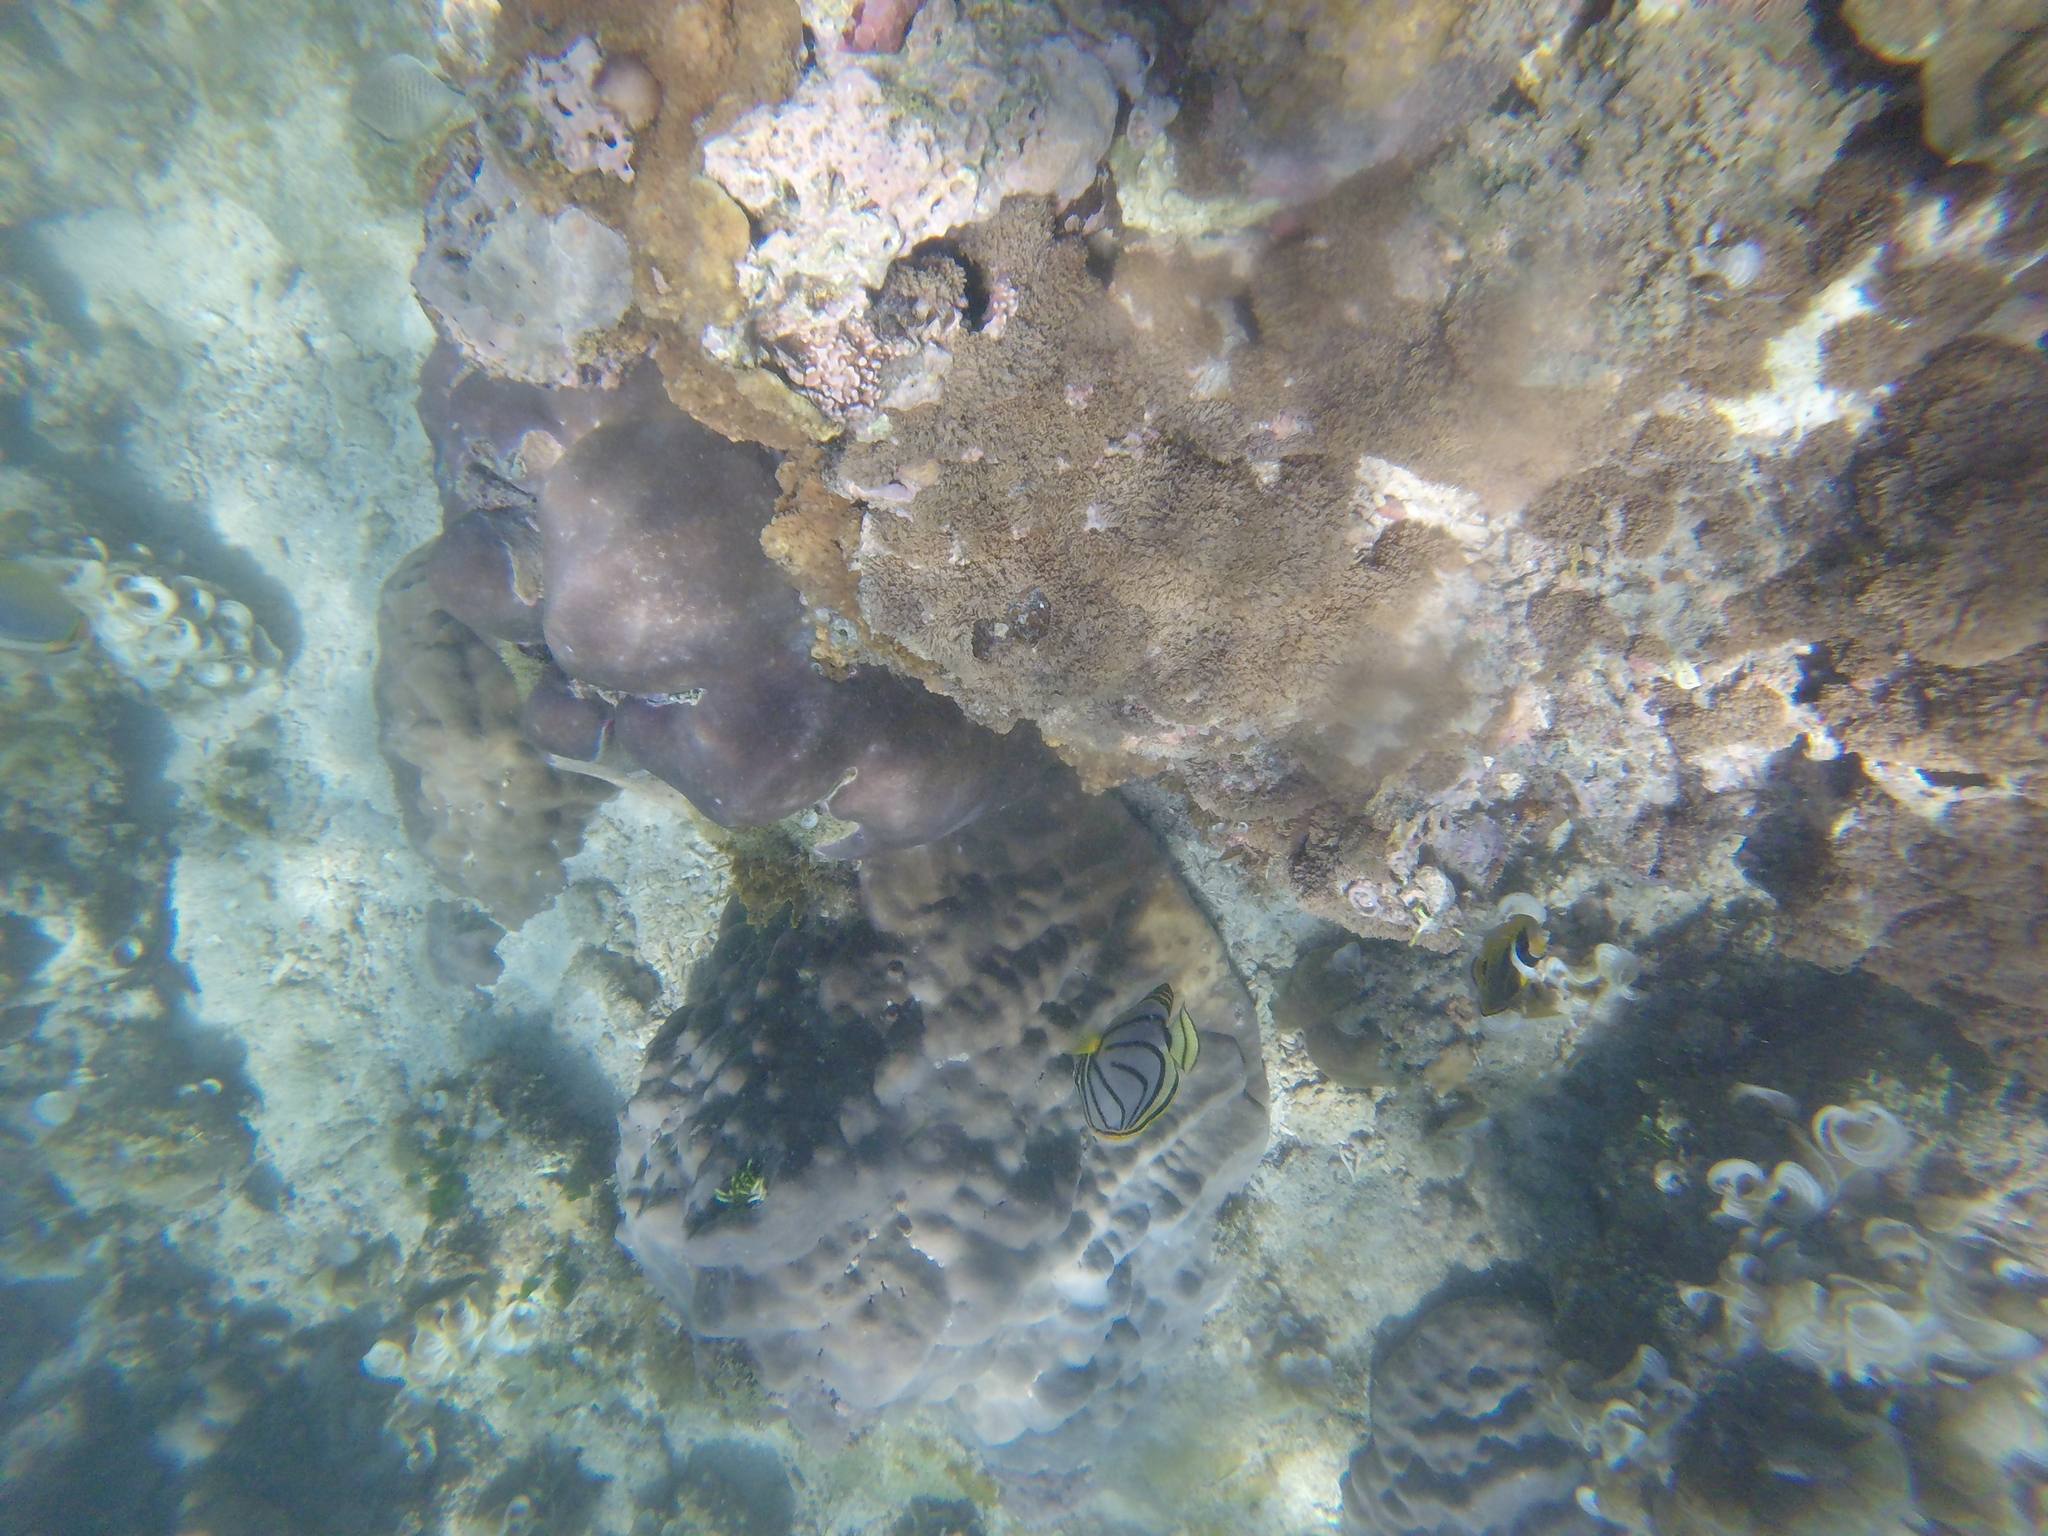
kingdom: Animalia
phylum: Chordata
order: Perciformes
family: Chaetodontidae
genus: Chaetodon
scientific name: Chaetodon meyeri
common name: Meyer's butterflyfish
